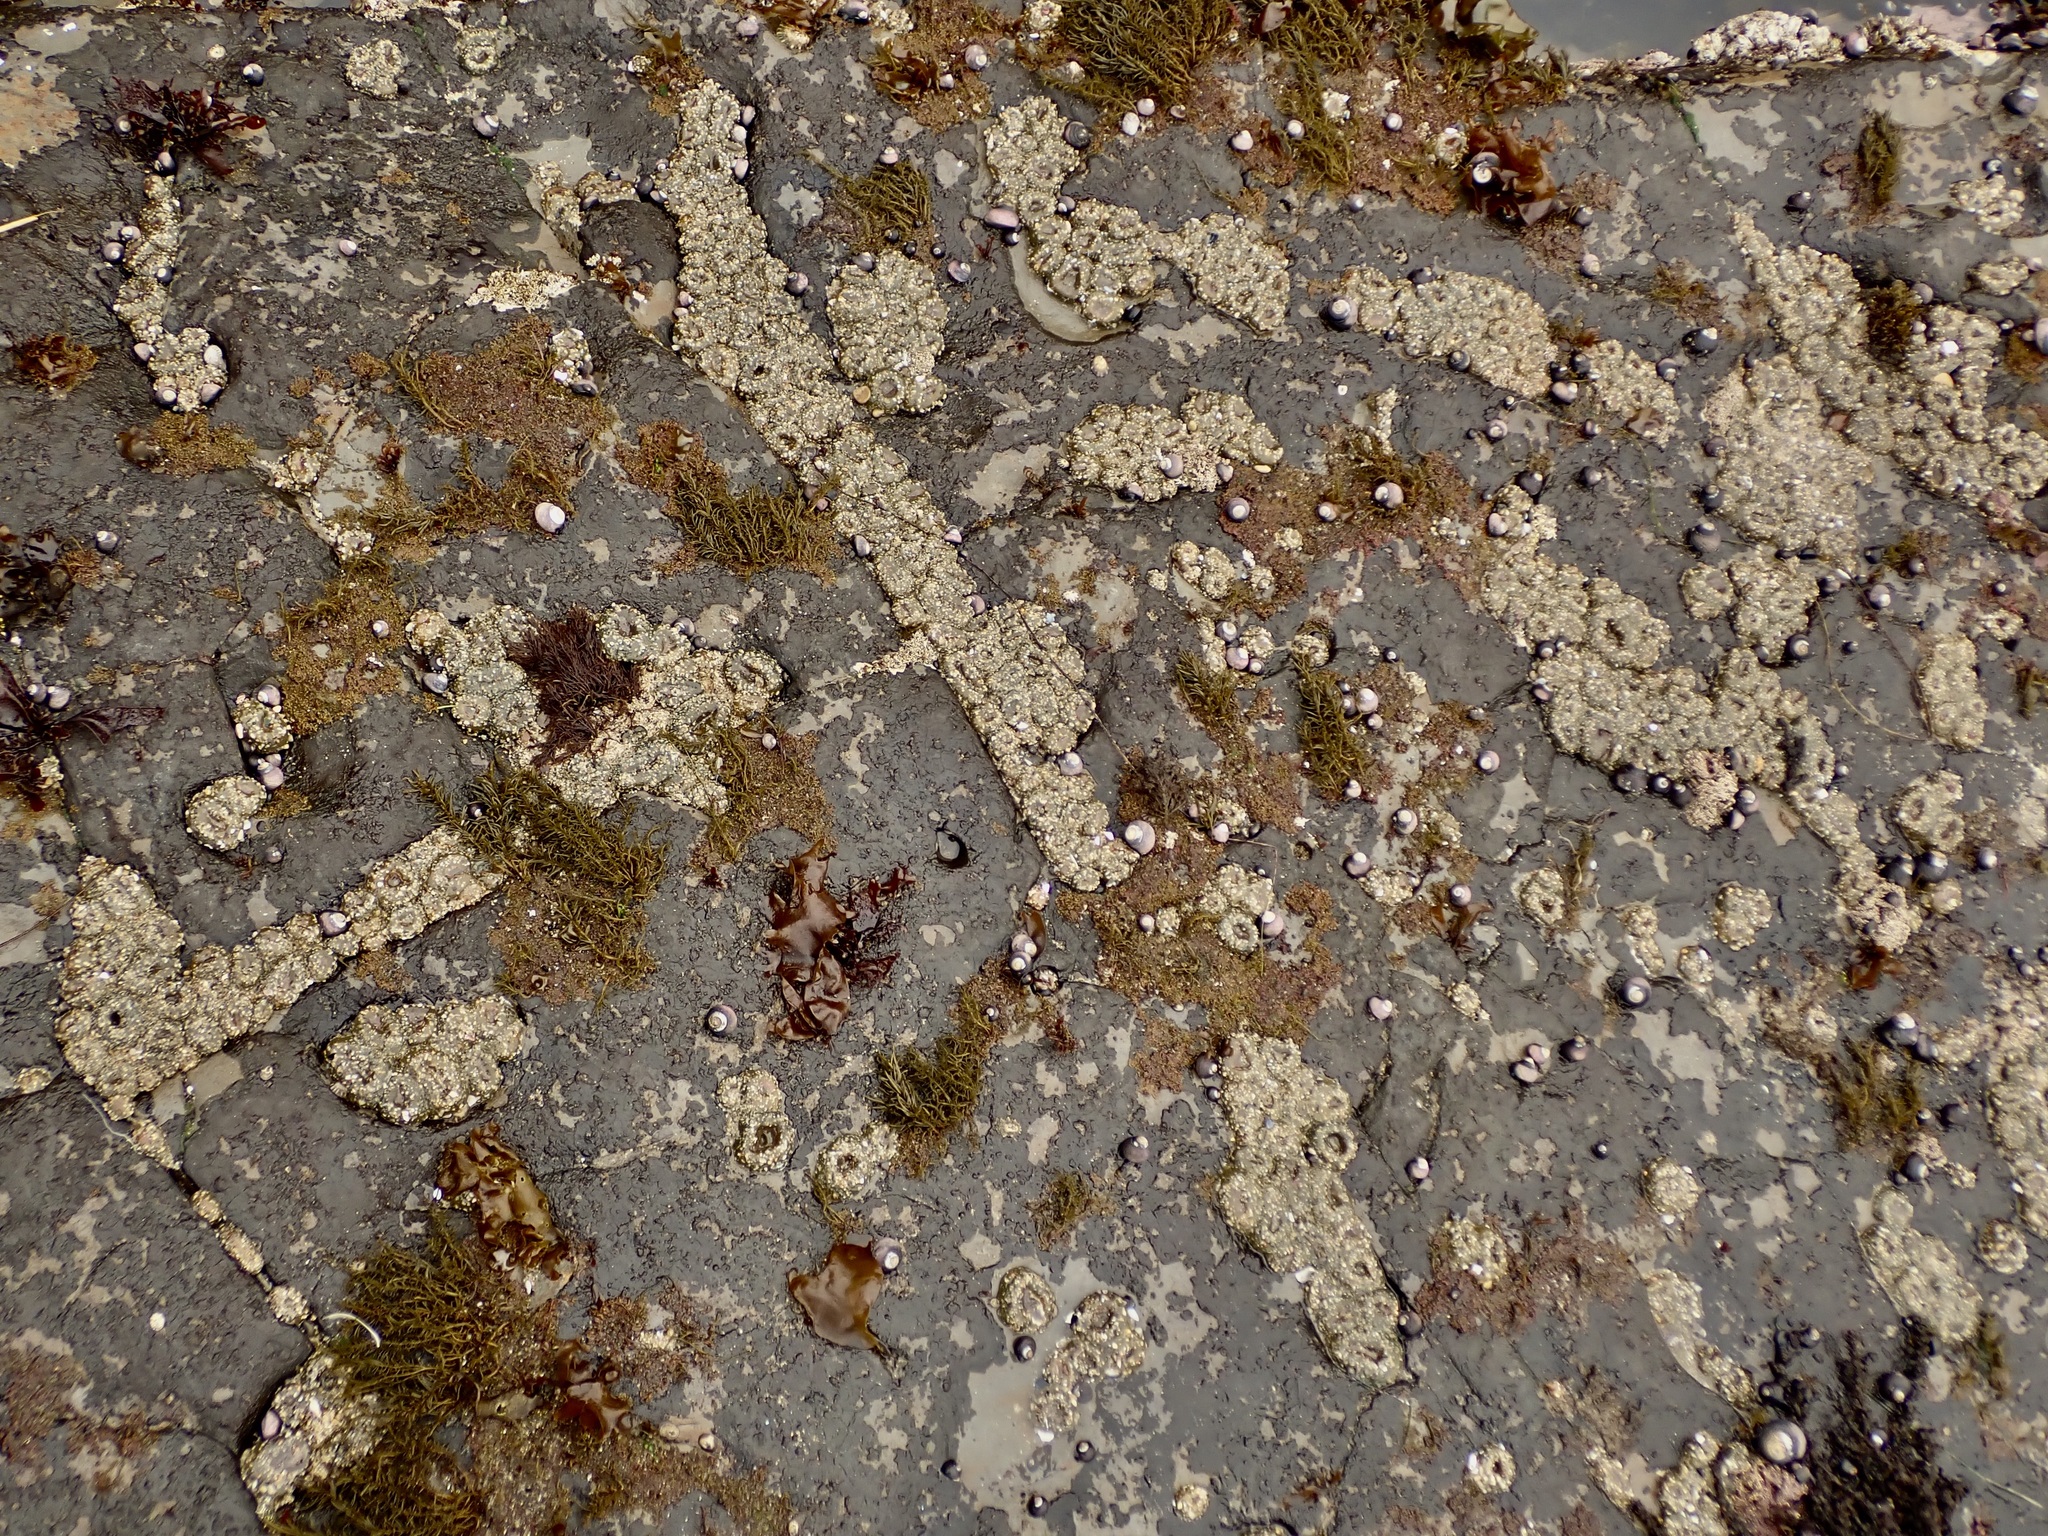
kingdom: Animalia
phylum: Cnidaria
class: Anthozoa
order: Actiniaria
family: Actiniidae
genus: Anthopleura
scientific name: Anthopleura elegantissima
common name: Clonal anemone
